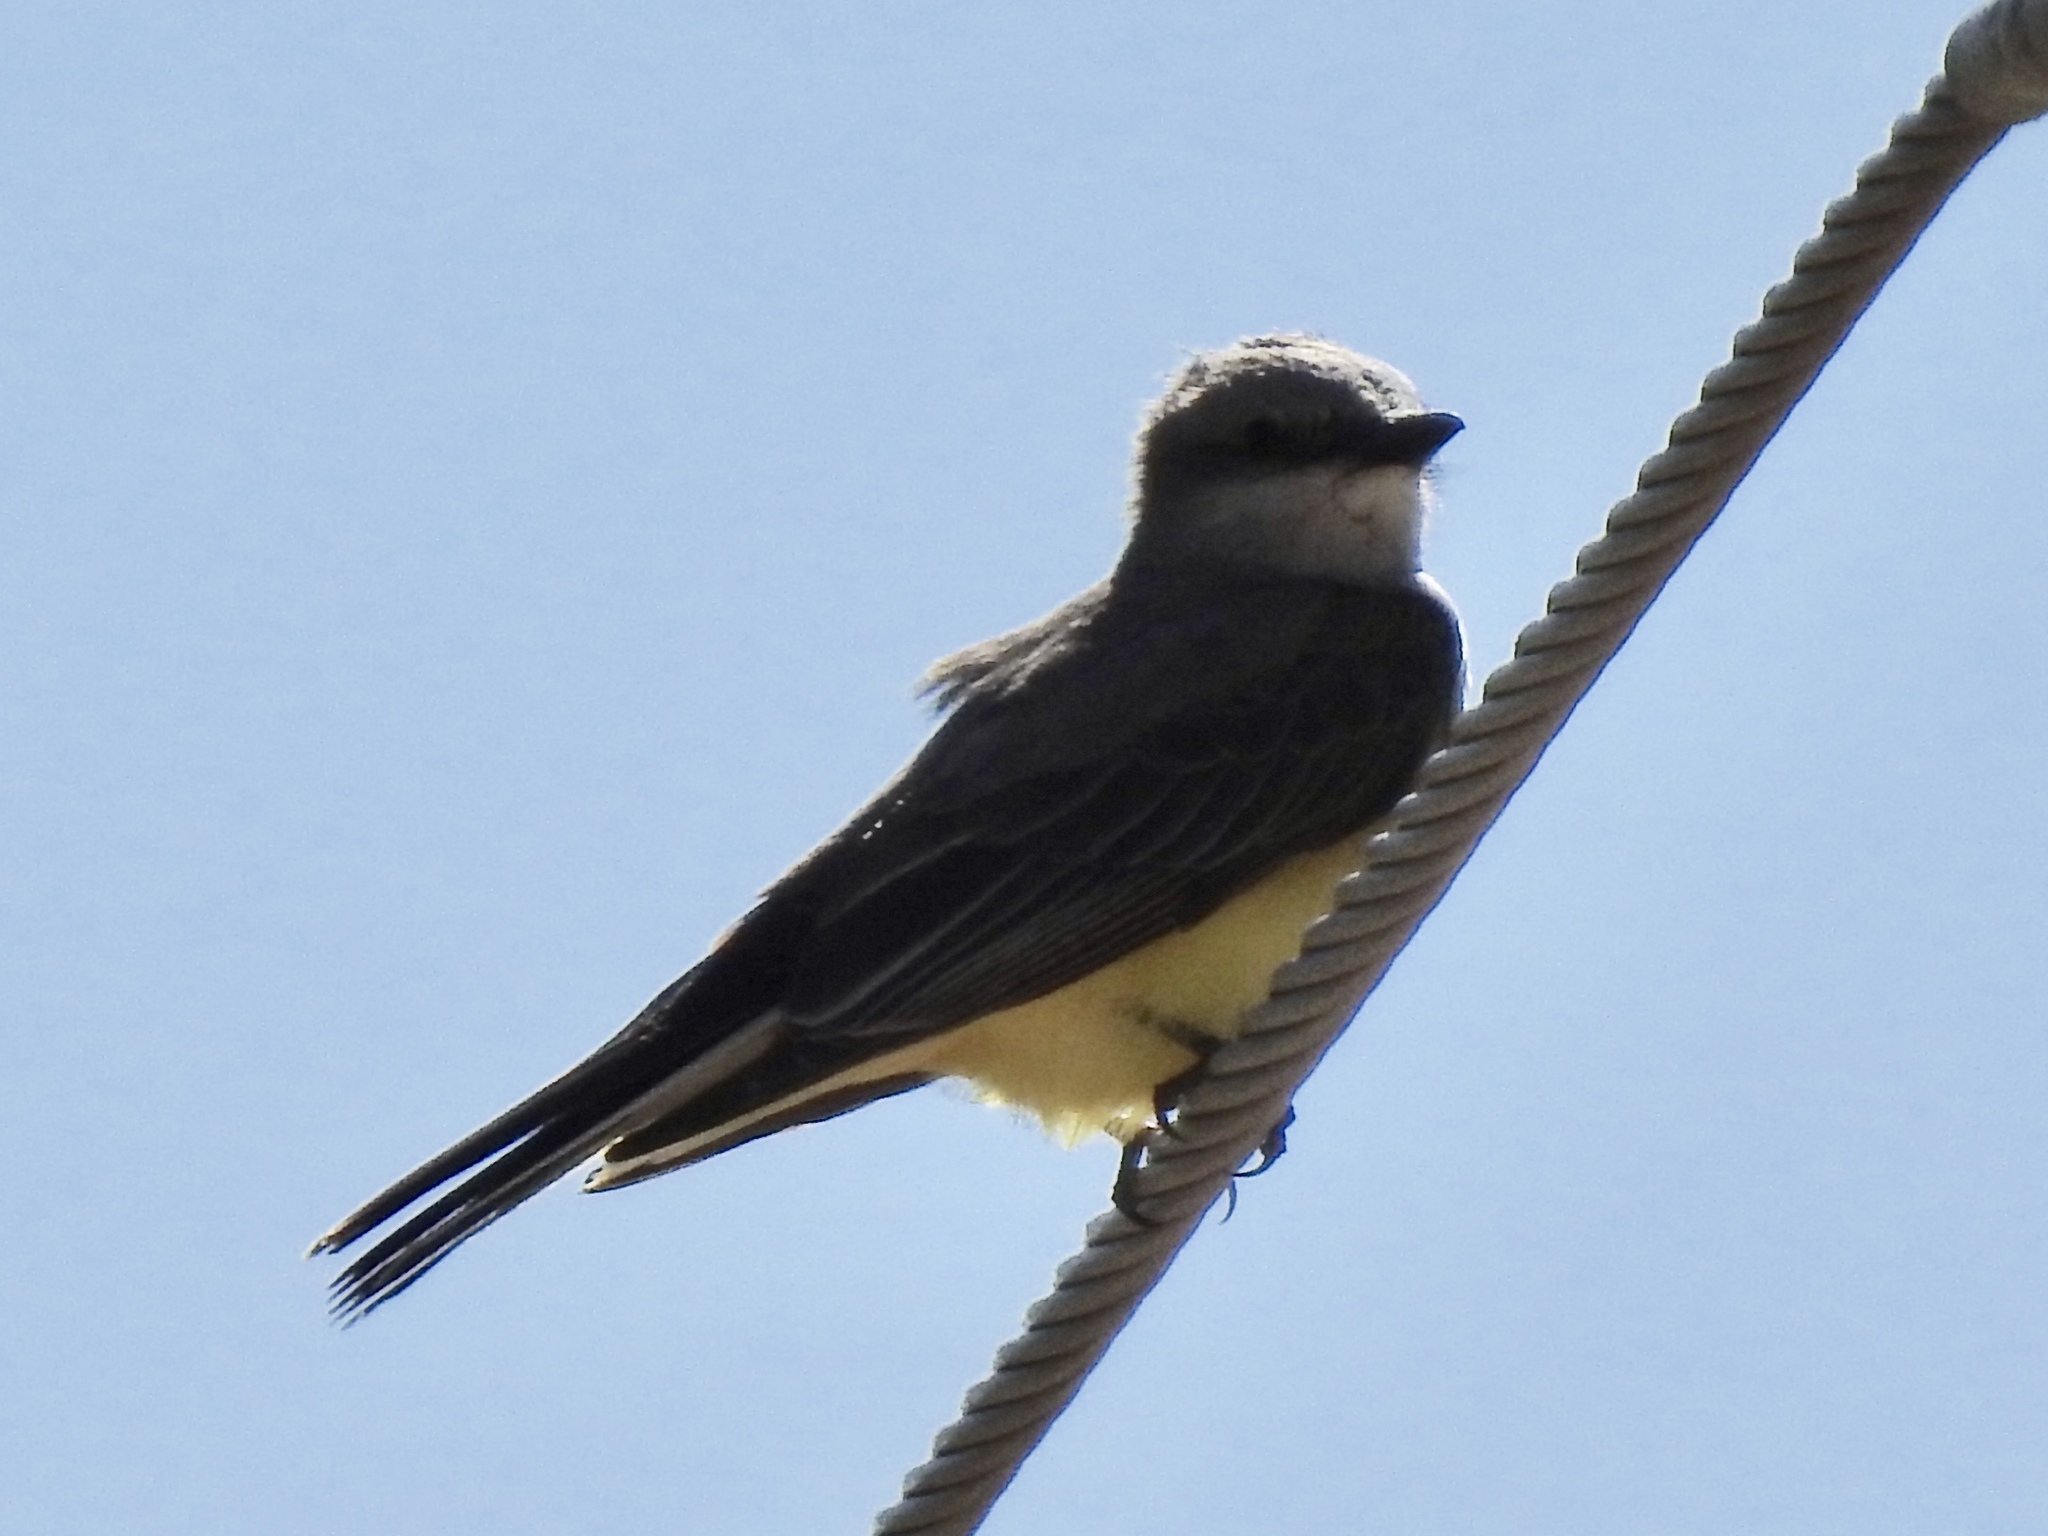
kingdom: Animalia
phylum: Chordata
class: Aves
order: Passeriformes
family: Tyrannidae
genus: Tyrannus
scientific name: Tyrannus verticalis
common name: Western kingbird
